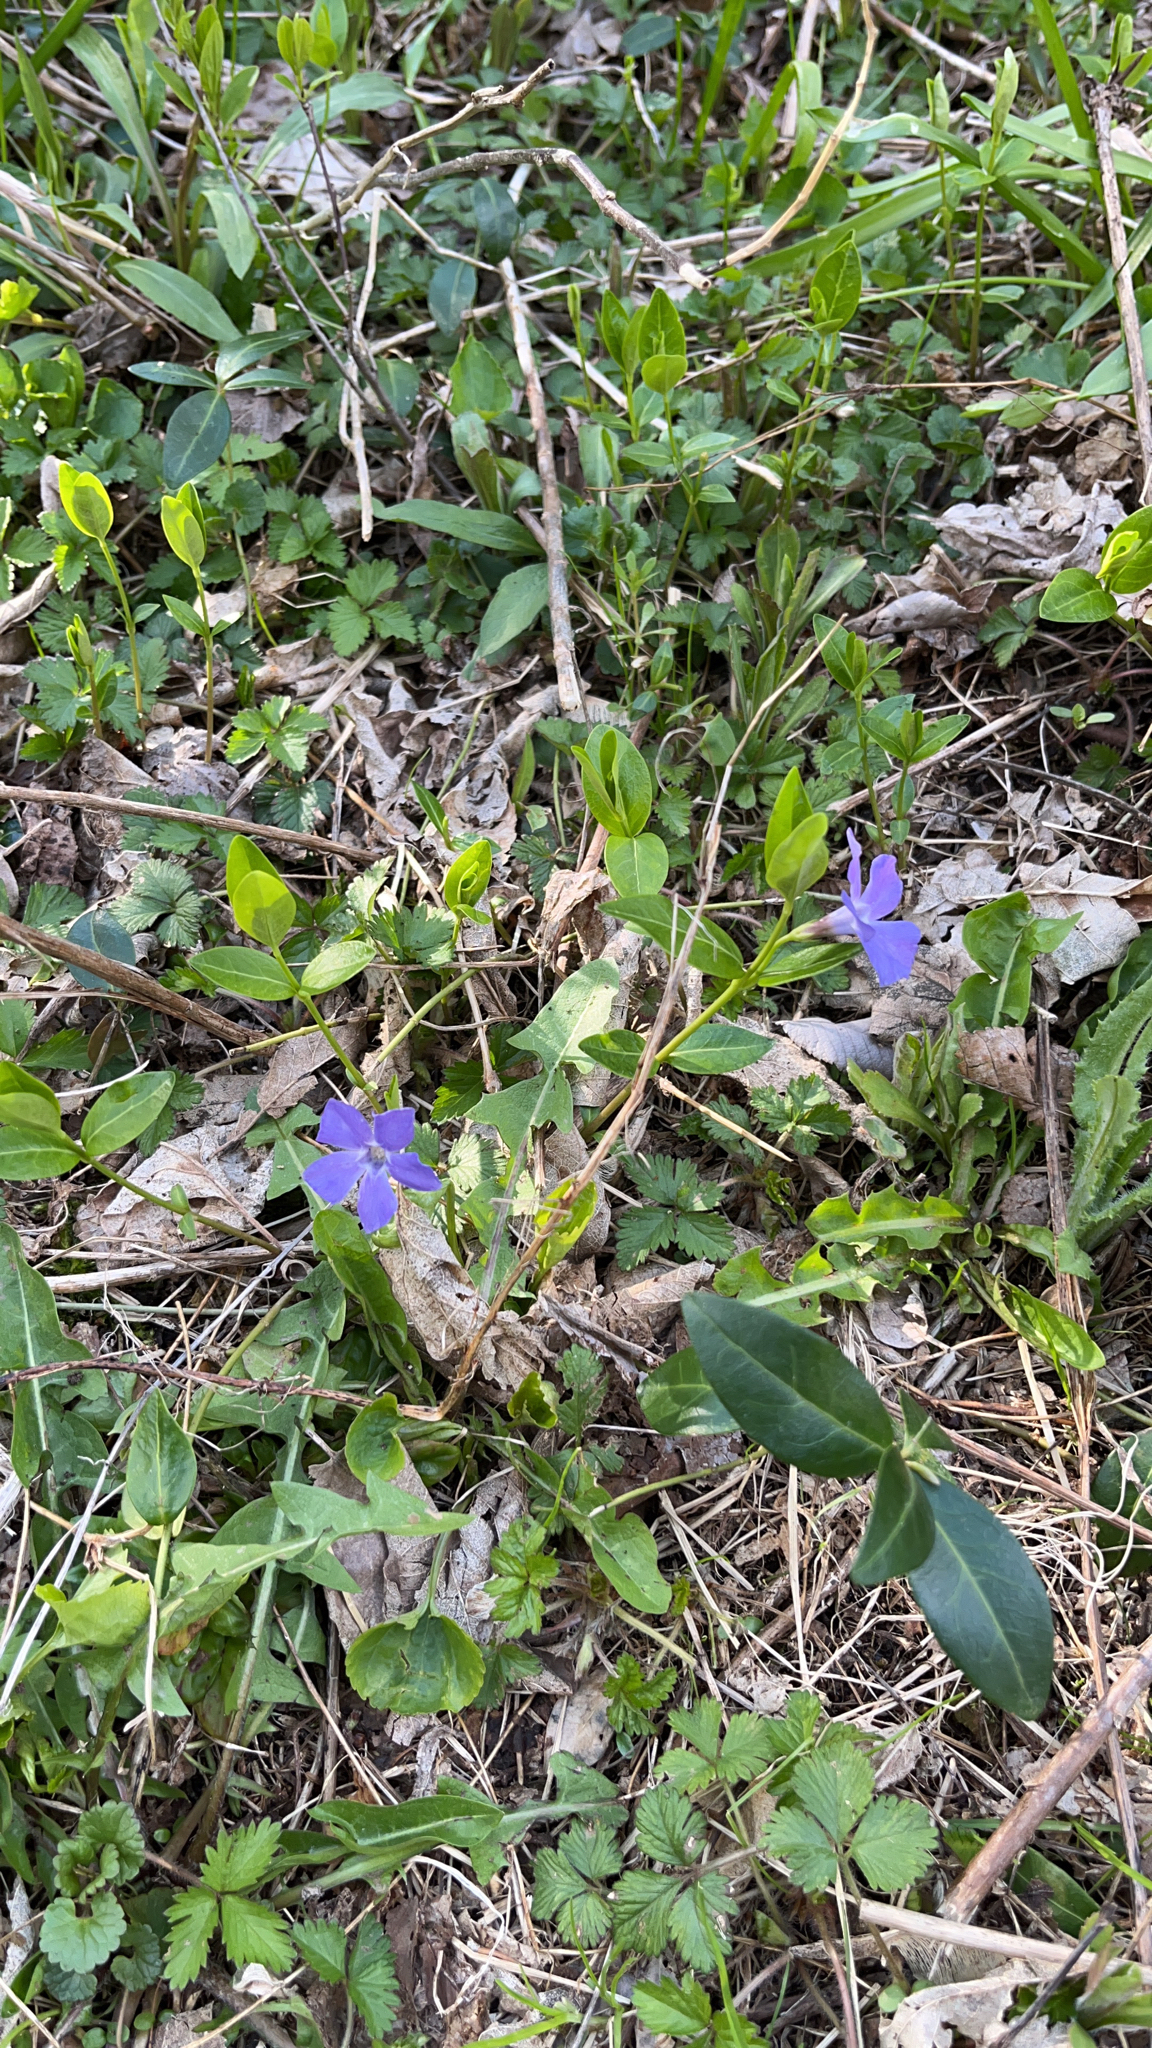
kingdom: Plantae
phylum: Tracheophyta
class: Magnoliopsida
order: Gentianales
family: Apocynaceae
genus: Vinca
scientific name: Vinca minor
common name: Lesser periwinkle
